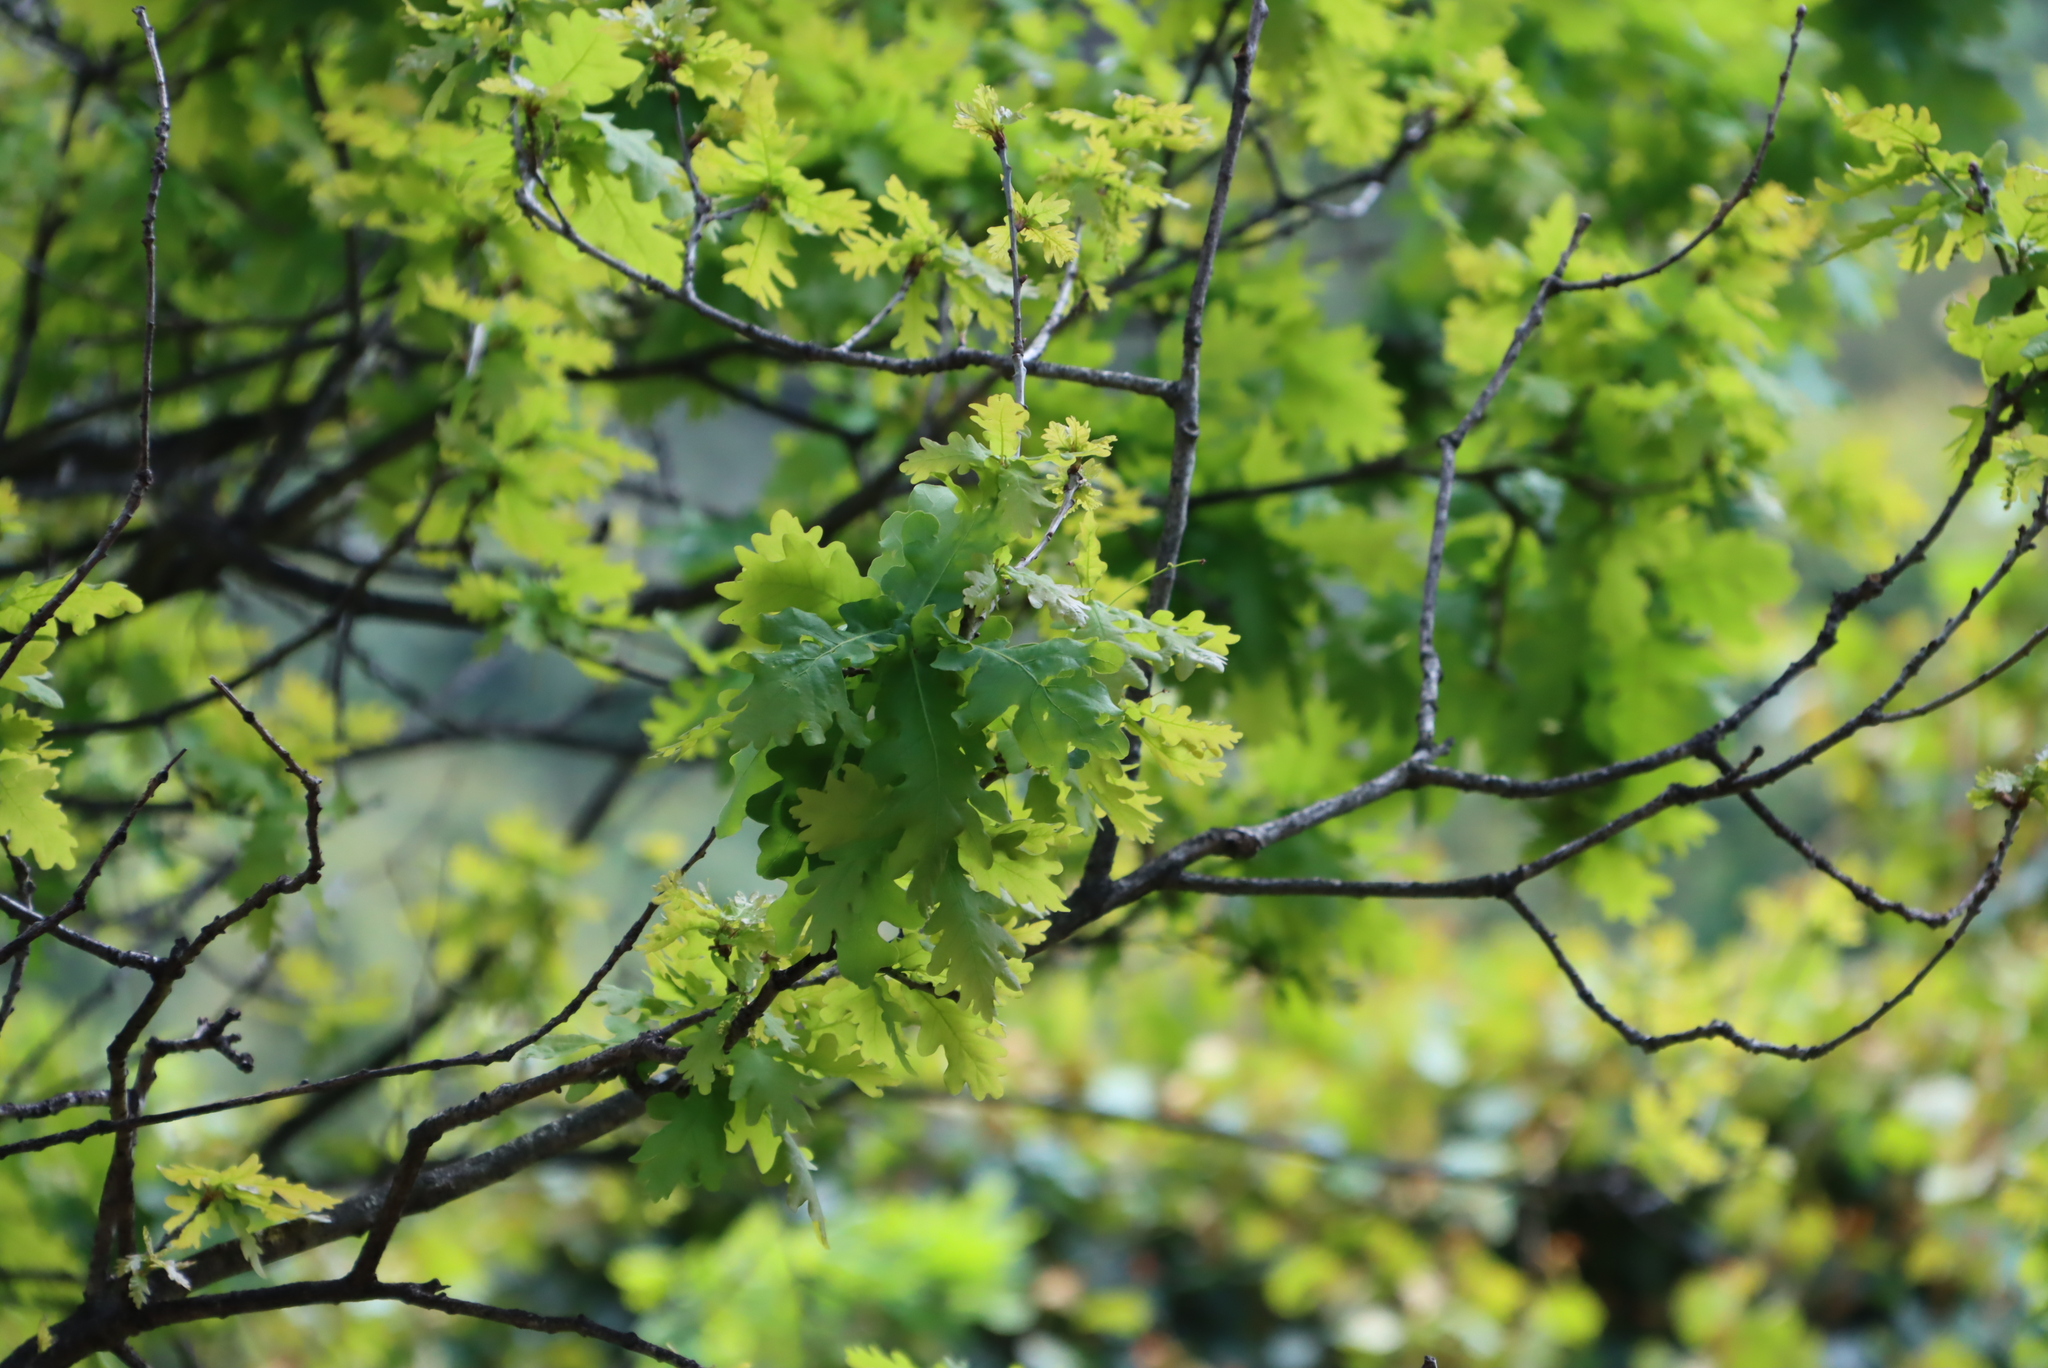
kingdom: Plantae
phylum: Tracheophyta
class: Magnoliopsida
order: Fagales
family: Fagaceae
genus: Quercus
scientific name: Quercus robur
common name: Pedunculate oak
